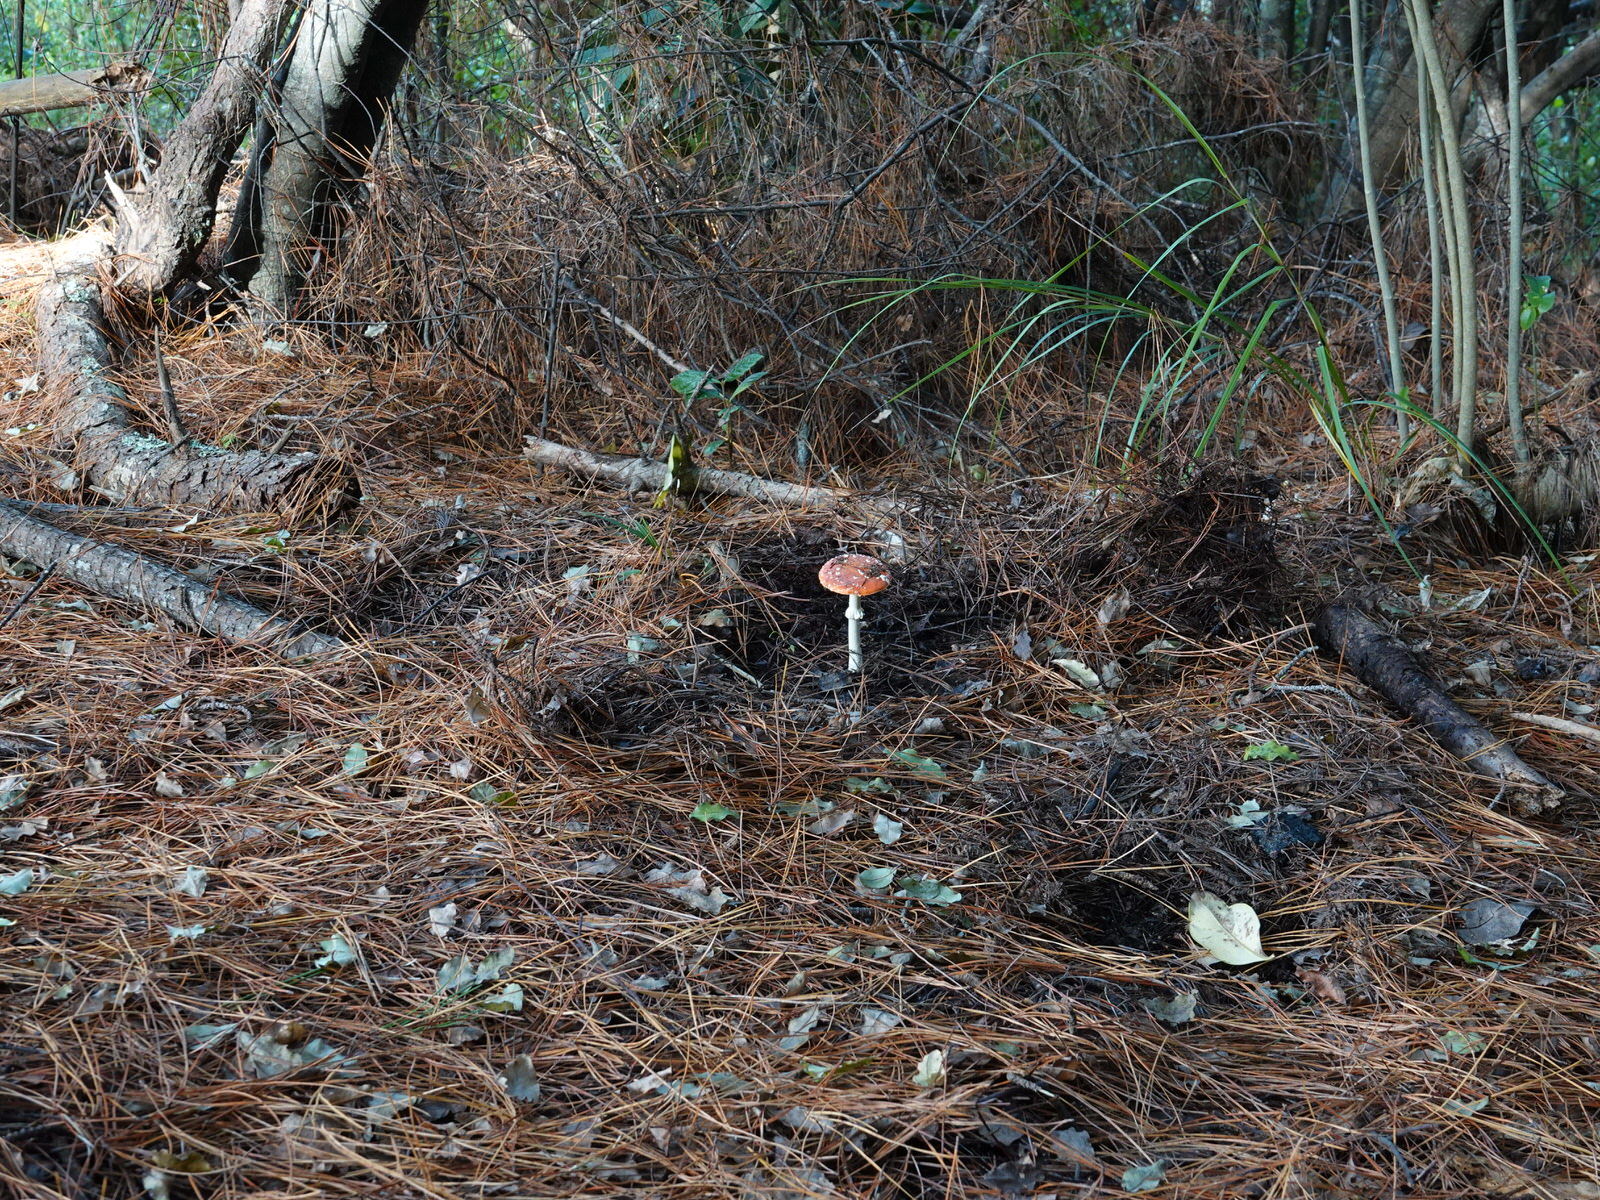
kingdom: Fungi
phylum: Basidiomycota
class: Agaricomycetes
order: Agaricales
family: Amanitaceae
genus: Amanita
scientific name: Amanita muscaria
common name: Fly agaric
